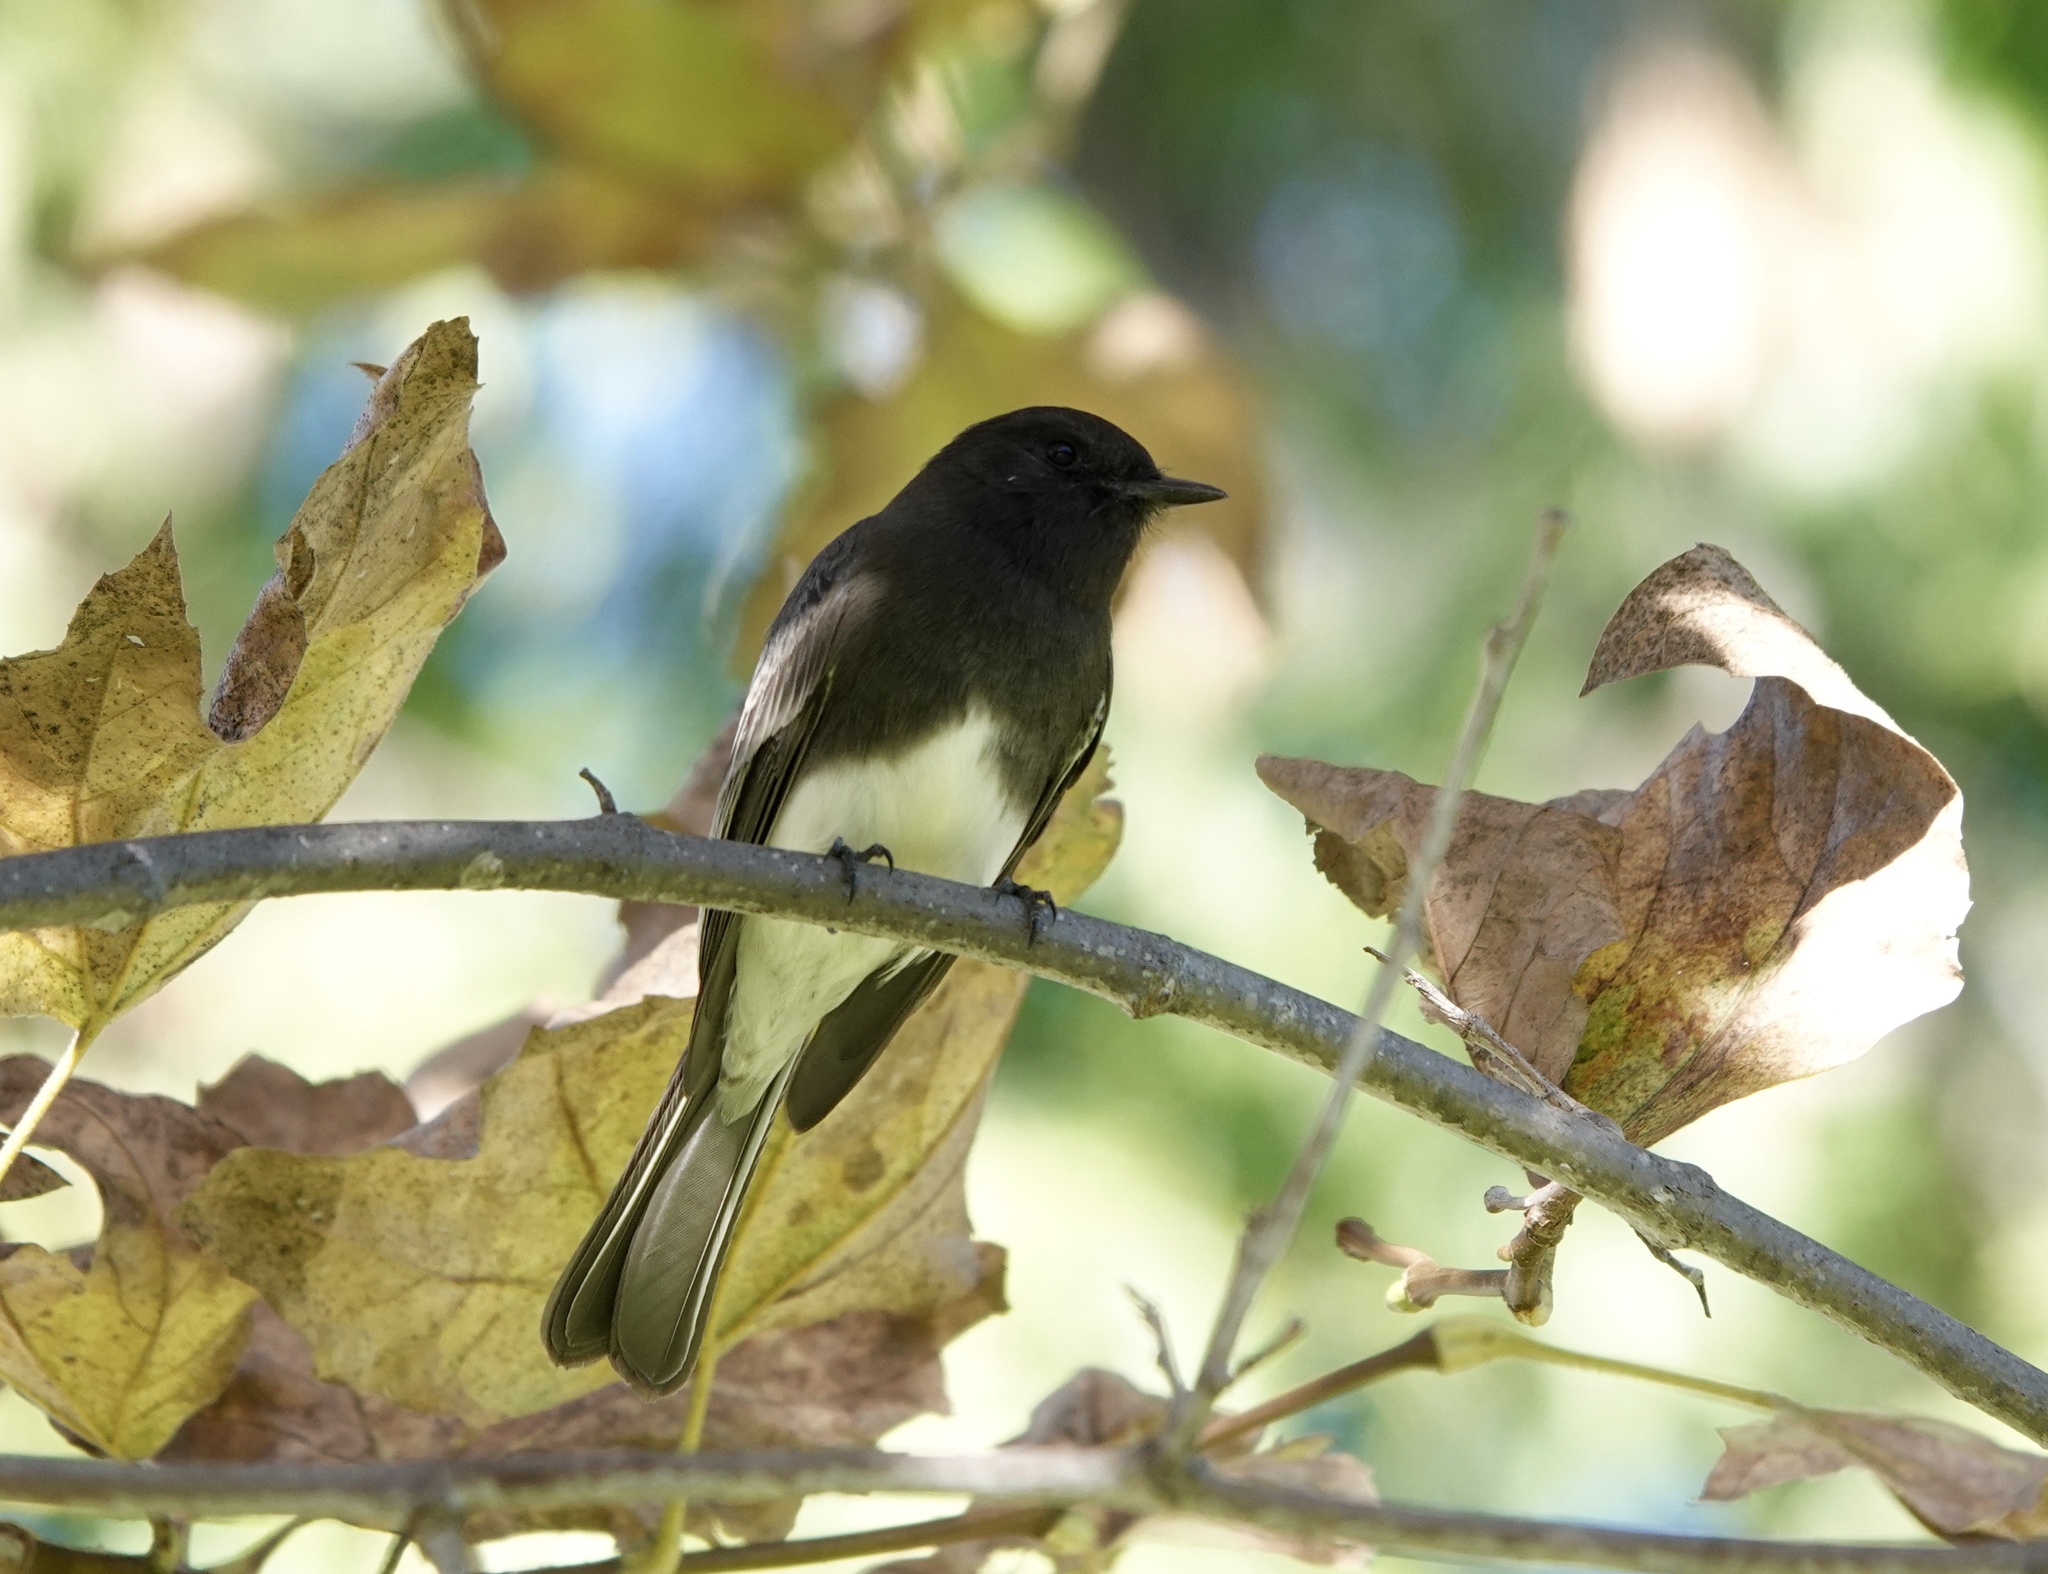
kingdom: Animalia
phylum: Chordata
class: Aves
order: Passeriformes
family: Tyrannidae
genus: Sayornis
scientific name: Sayornis nigricans
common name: Black phoebe
